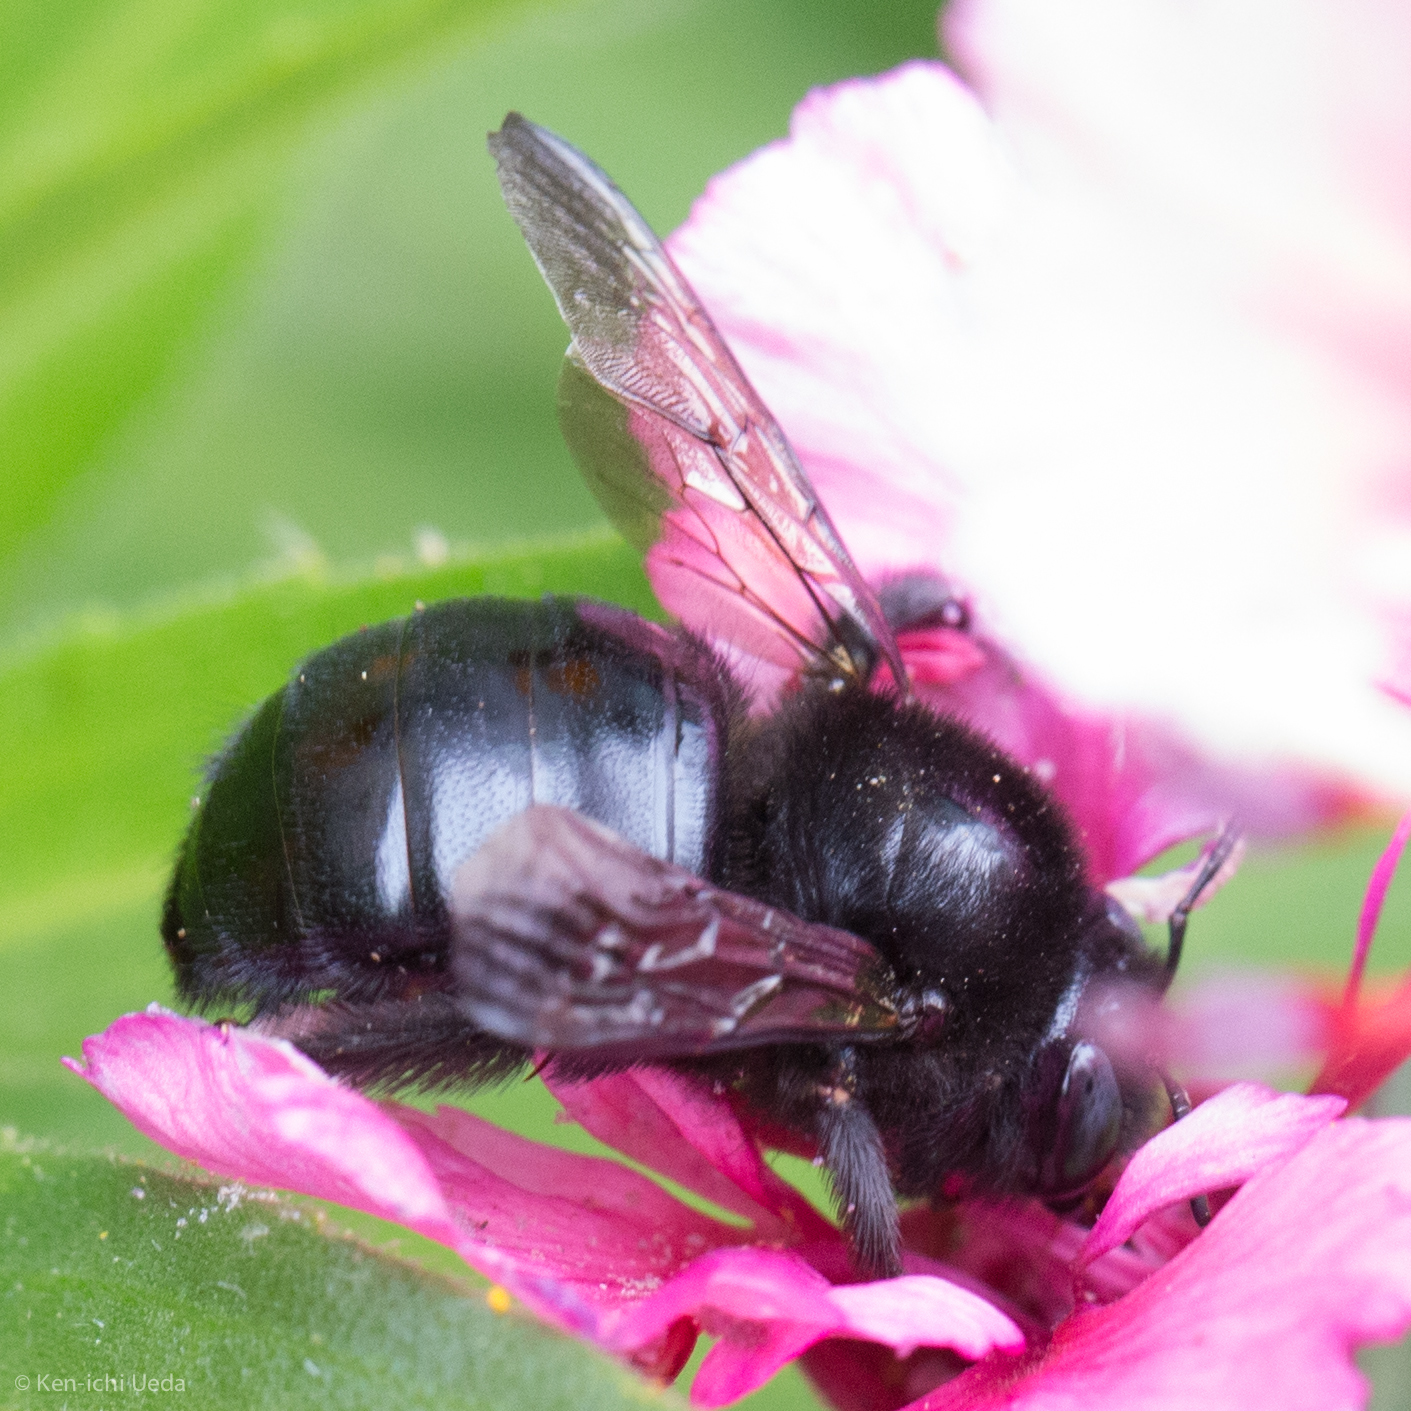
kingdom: Animalia
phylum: Arthropoda
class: Insecta
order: Hymenoptera
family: Apidae
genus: Xylocopa
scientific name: Xylocopa tabaniformis
